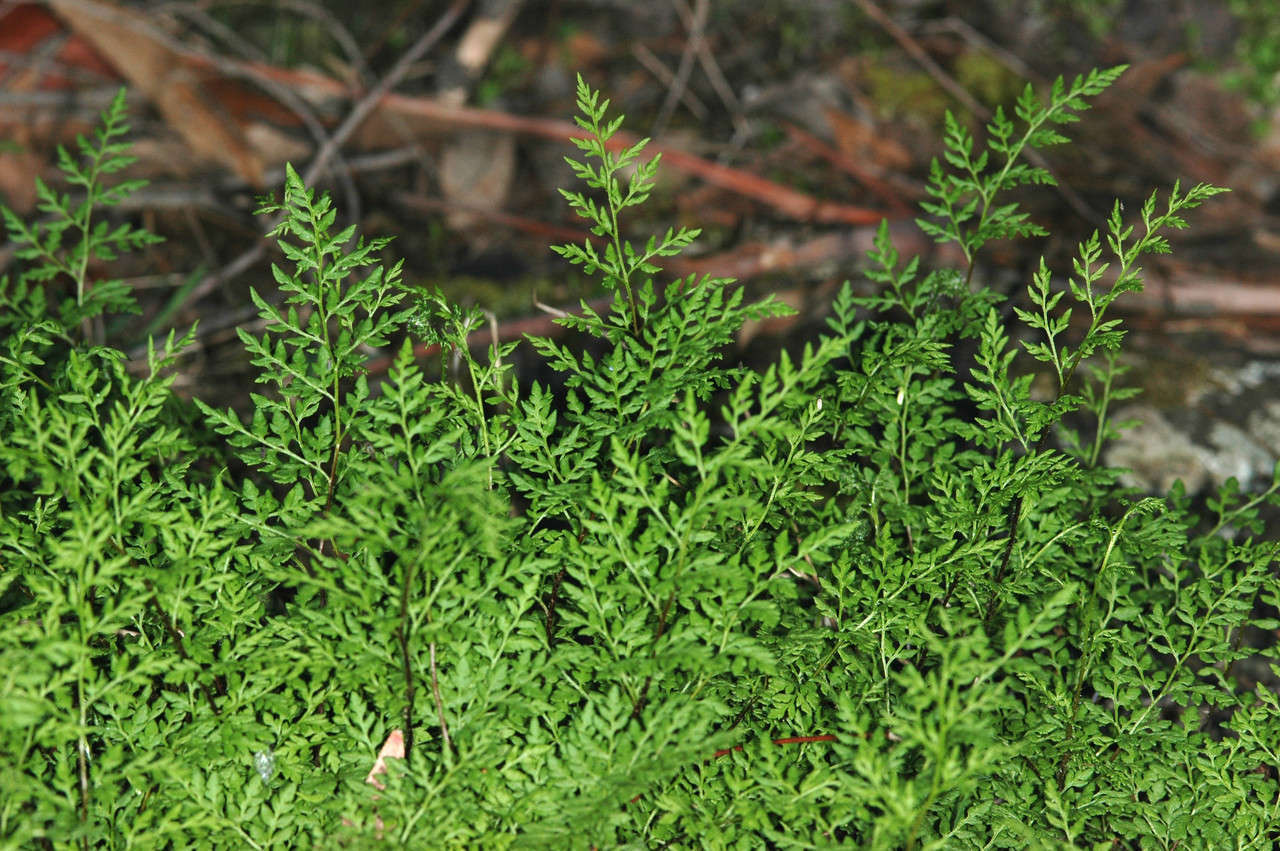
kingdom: Plantae
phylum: Tracheophyta
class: Polypodiopsida
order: Polypodiales
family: Pteridaceae
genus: Cheilanthes
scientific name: Cheilanthes austrotenuifolia
